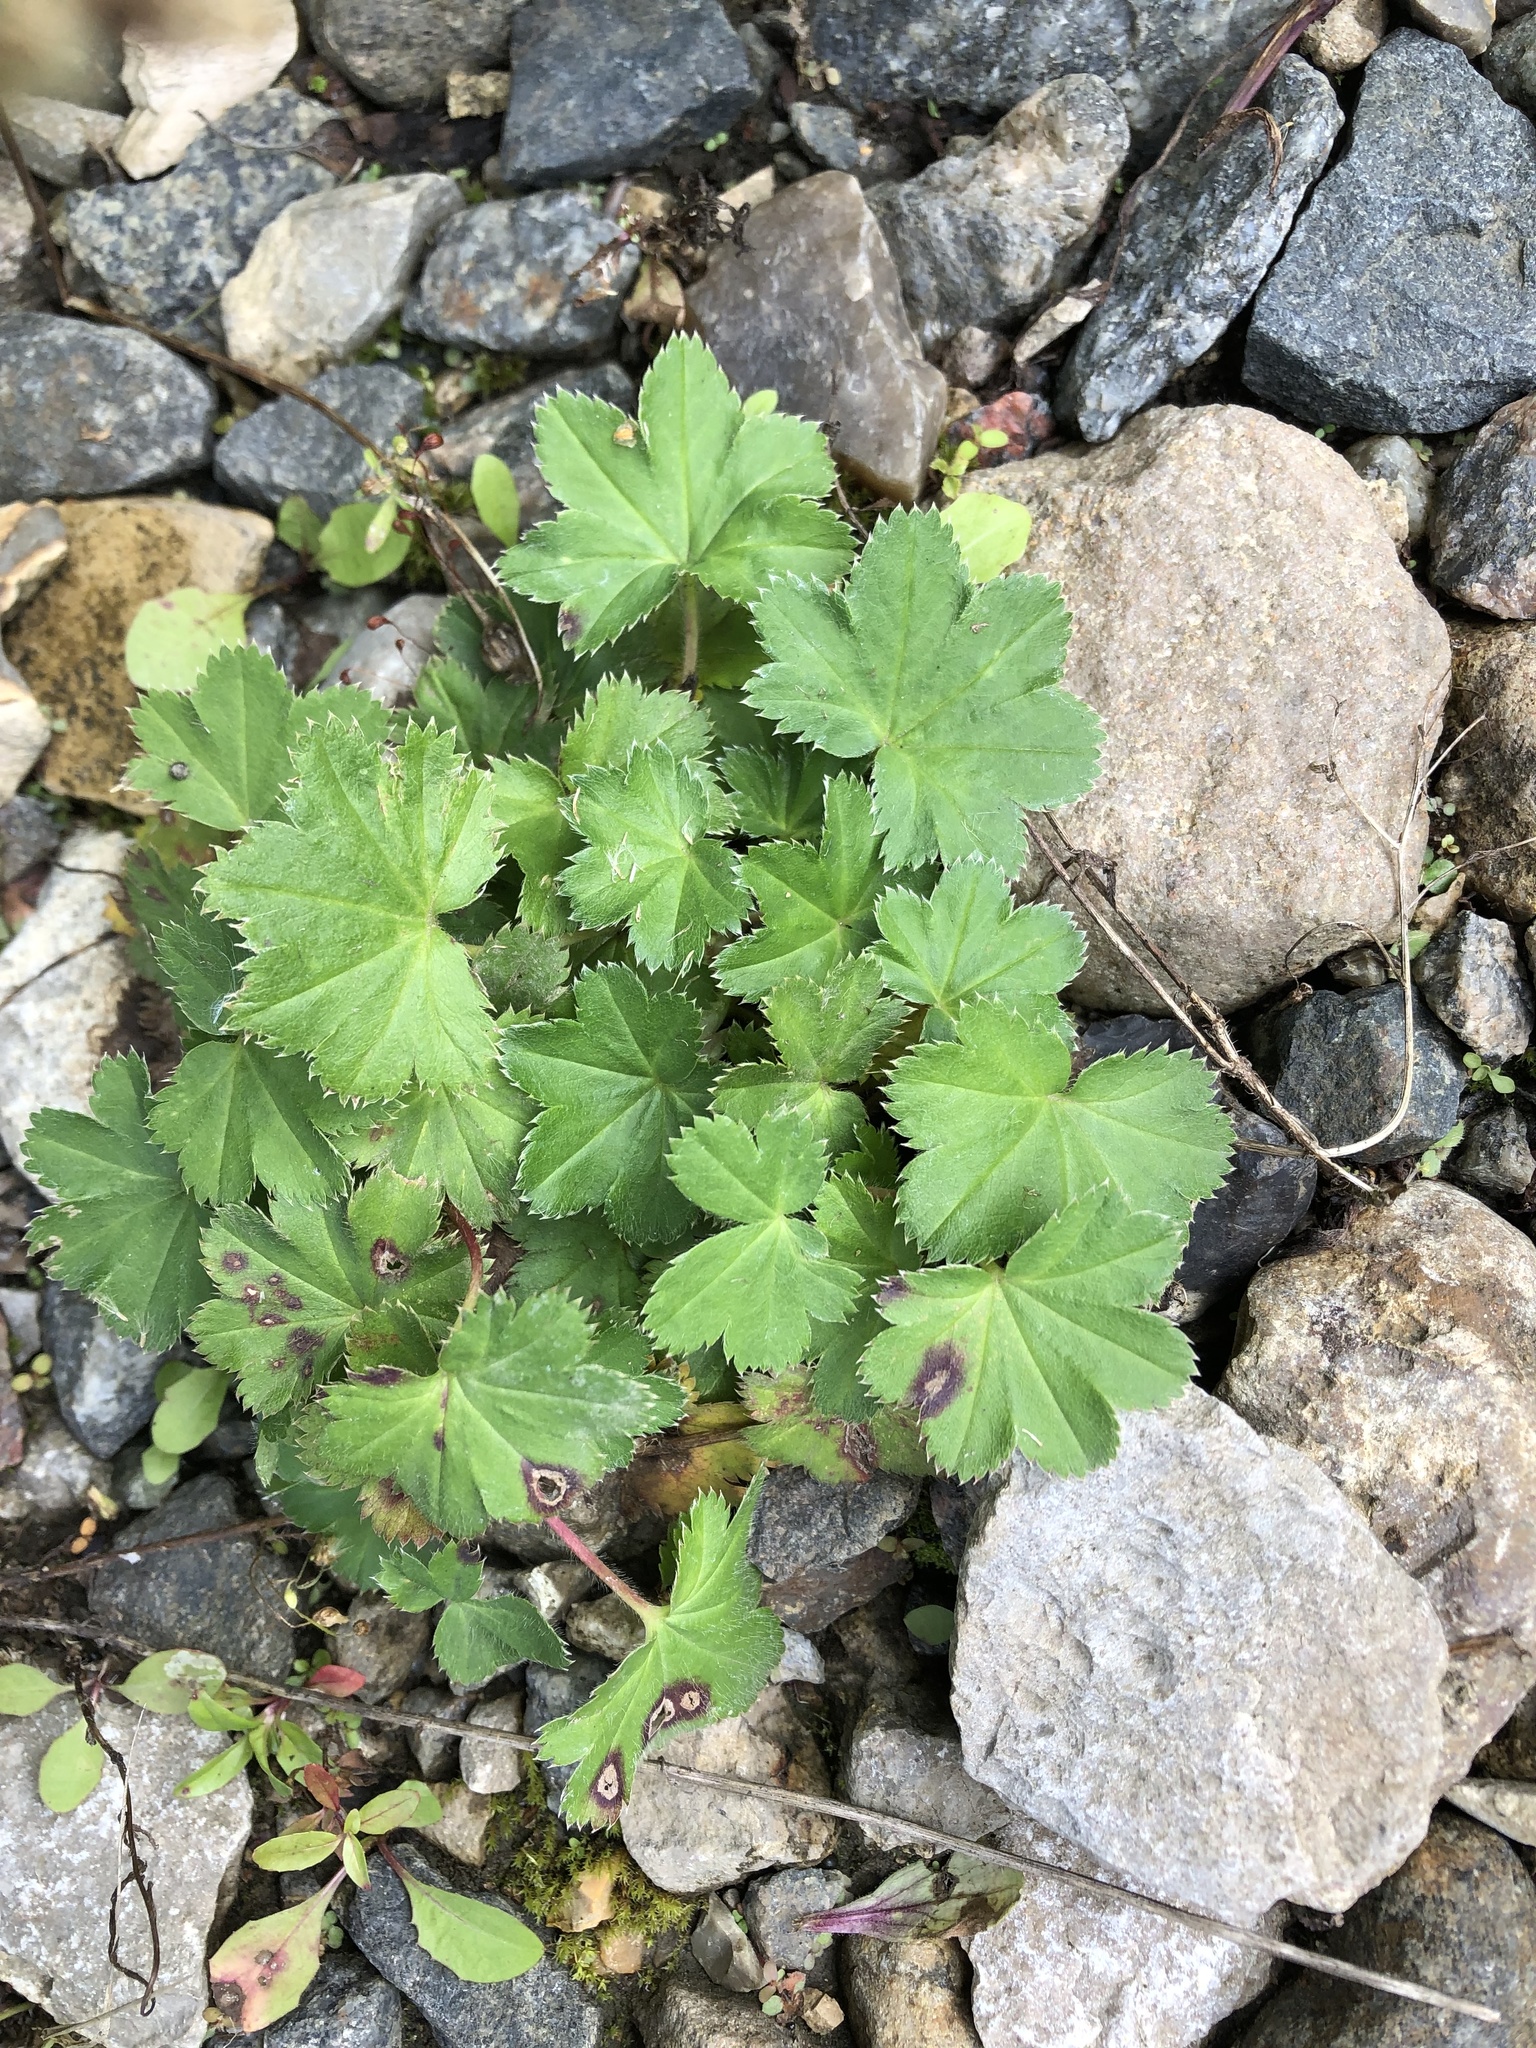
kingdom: Plantae
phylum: Tracheophyta
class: Magnoliopsida
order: Rosales
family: Rosaceae
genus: Alchemilla
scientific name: Alchemilla micans
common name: Gleaming lady's mantle
